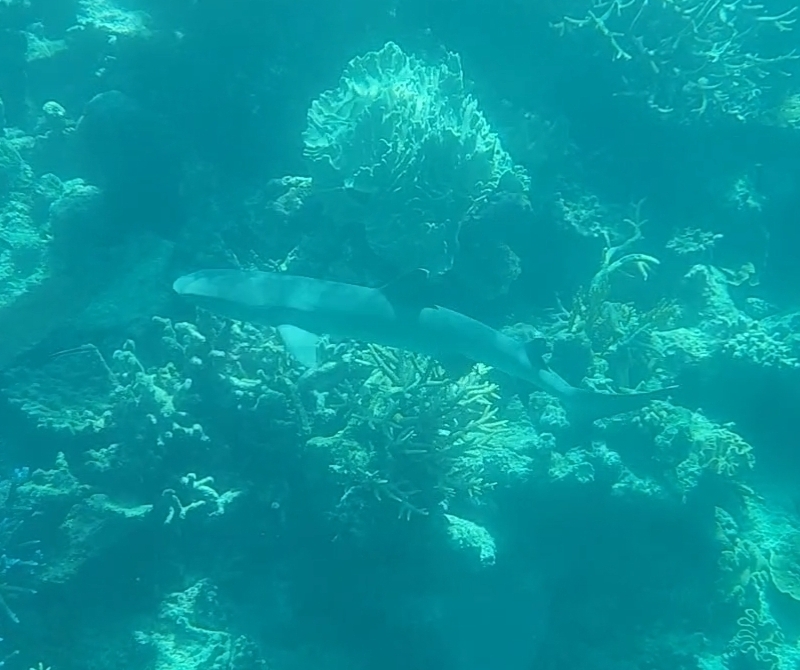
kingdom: Animalia
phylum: Chordata
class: Elasmobranchii
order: Carcharhiniformes
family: Carcharhinidae
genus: Triaenodon
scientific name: Triaenodon obesus
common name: Whitetip reef shark
